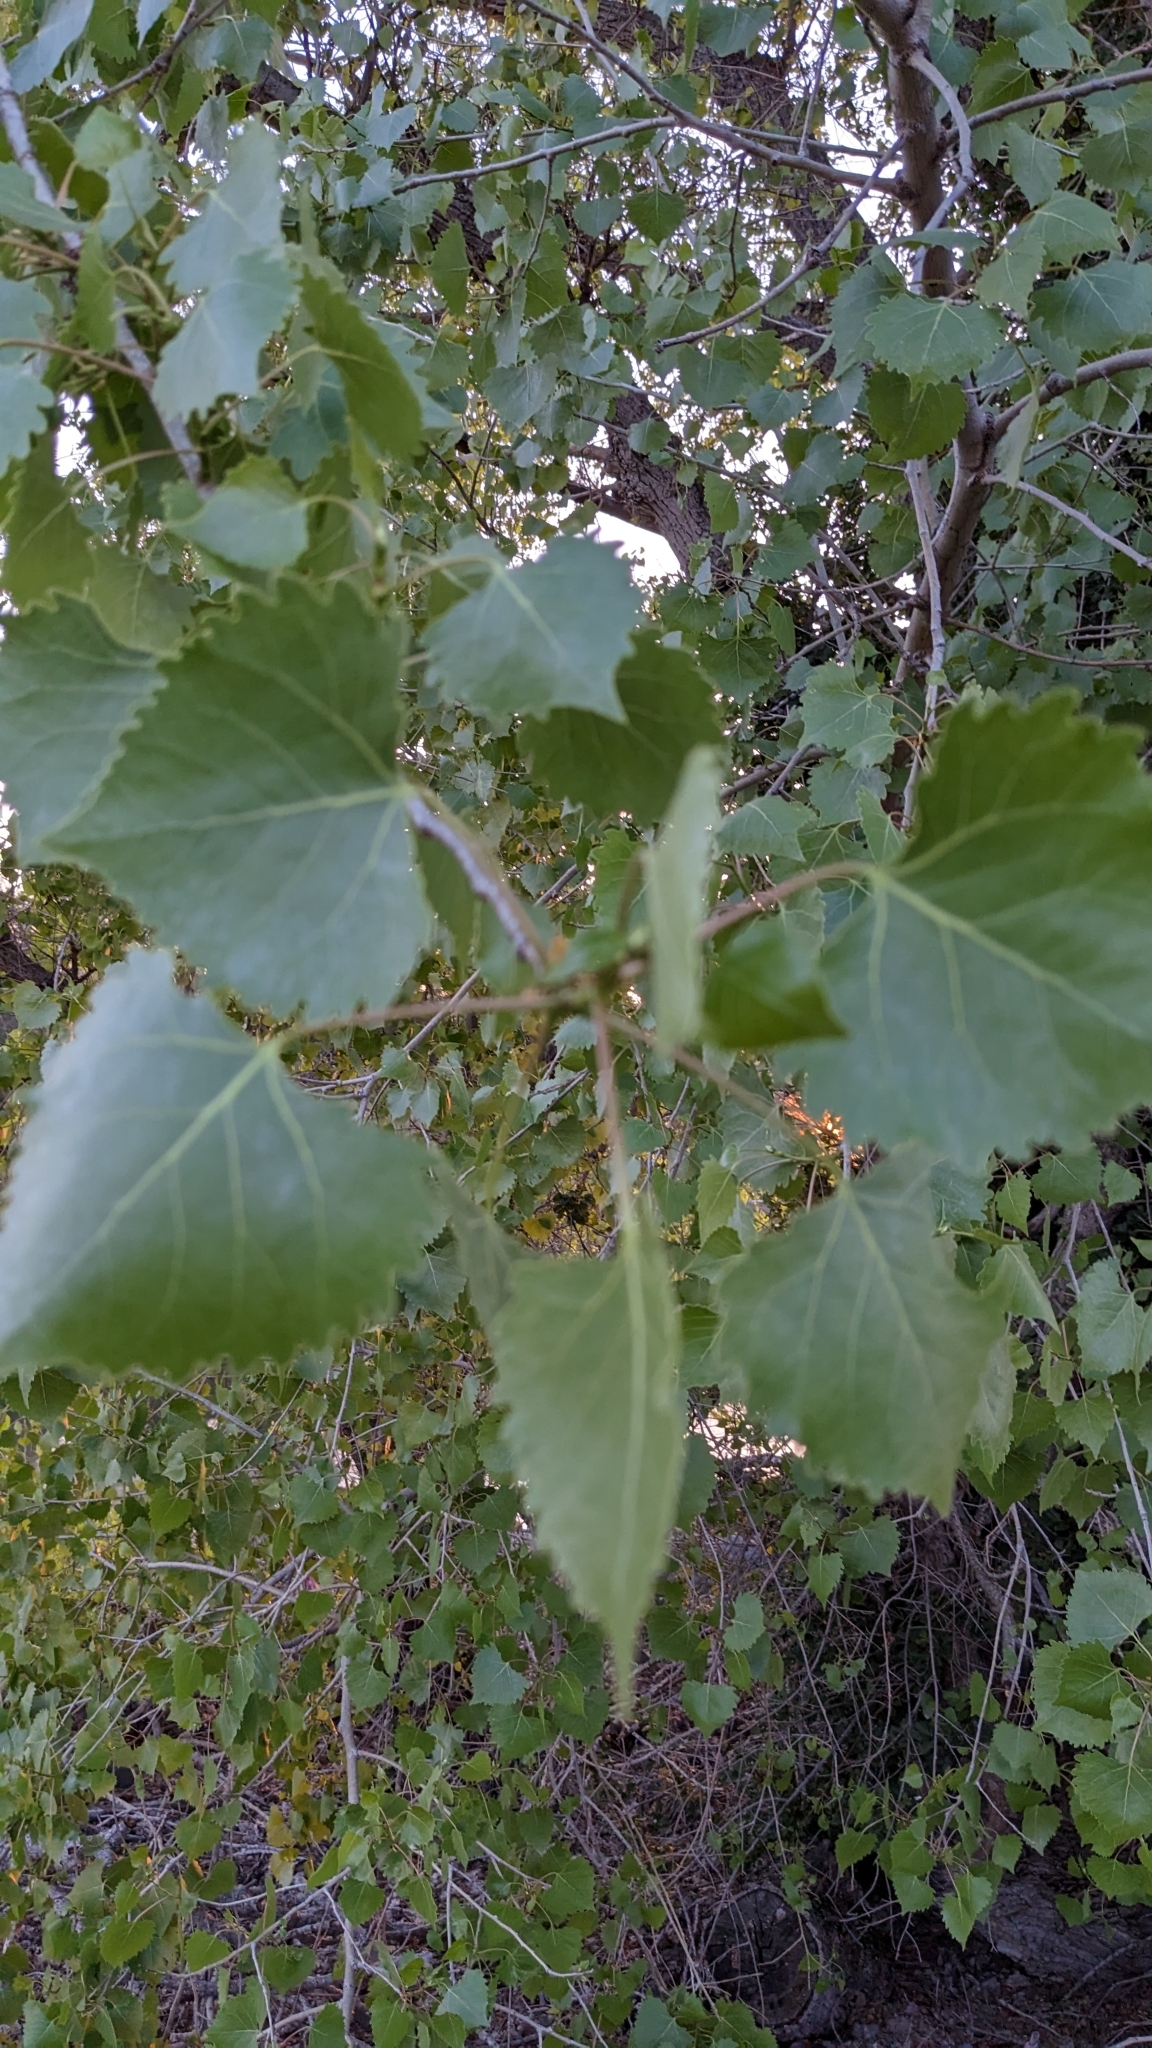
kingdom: Plantae
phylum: Tracheophyta
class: Magnoliopsida
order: Malpighiales
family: Salicaceae
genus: Populus
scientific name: Populus fremontii
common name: Fremont's cottonwood
